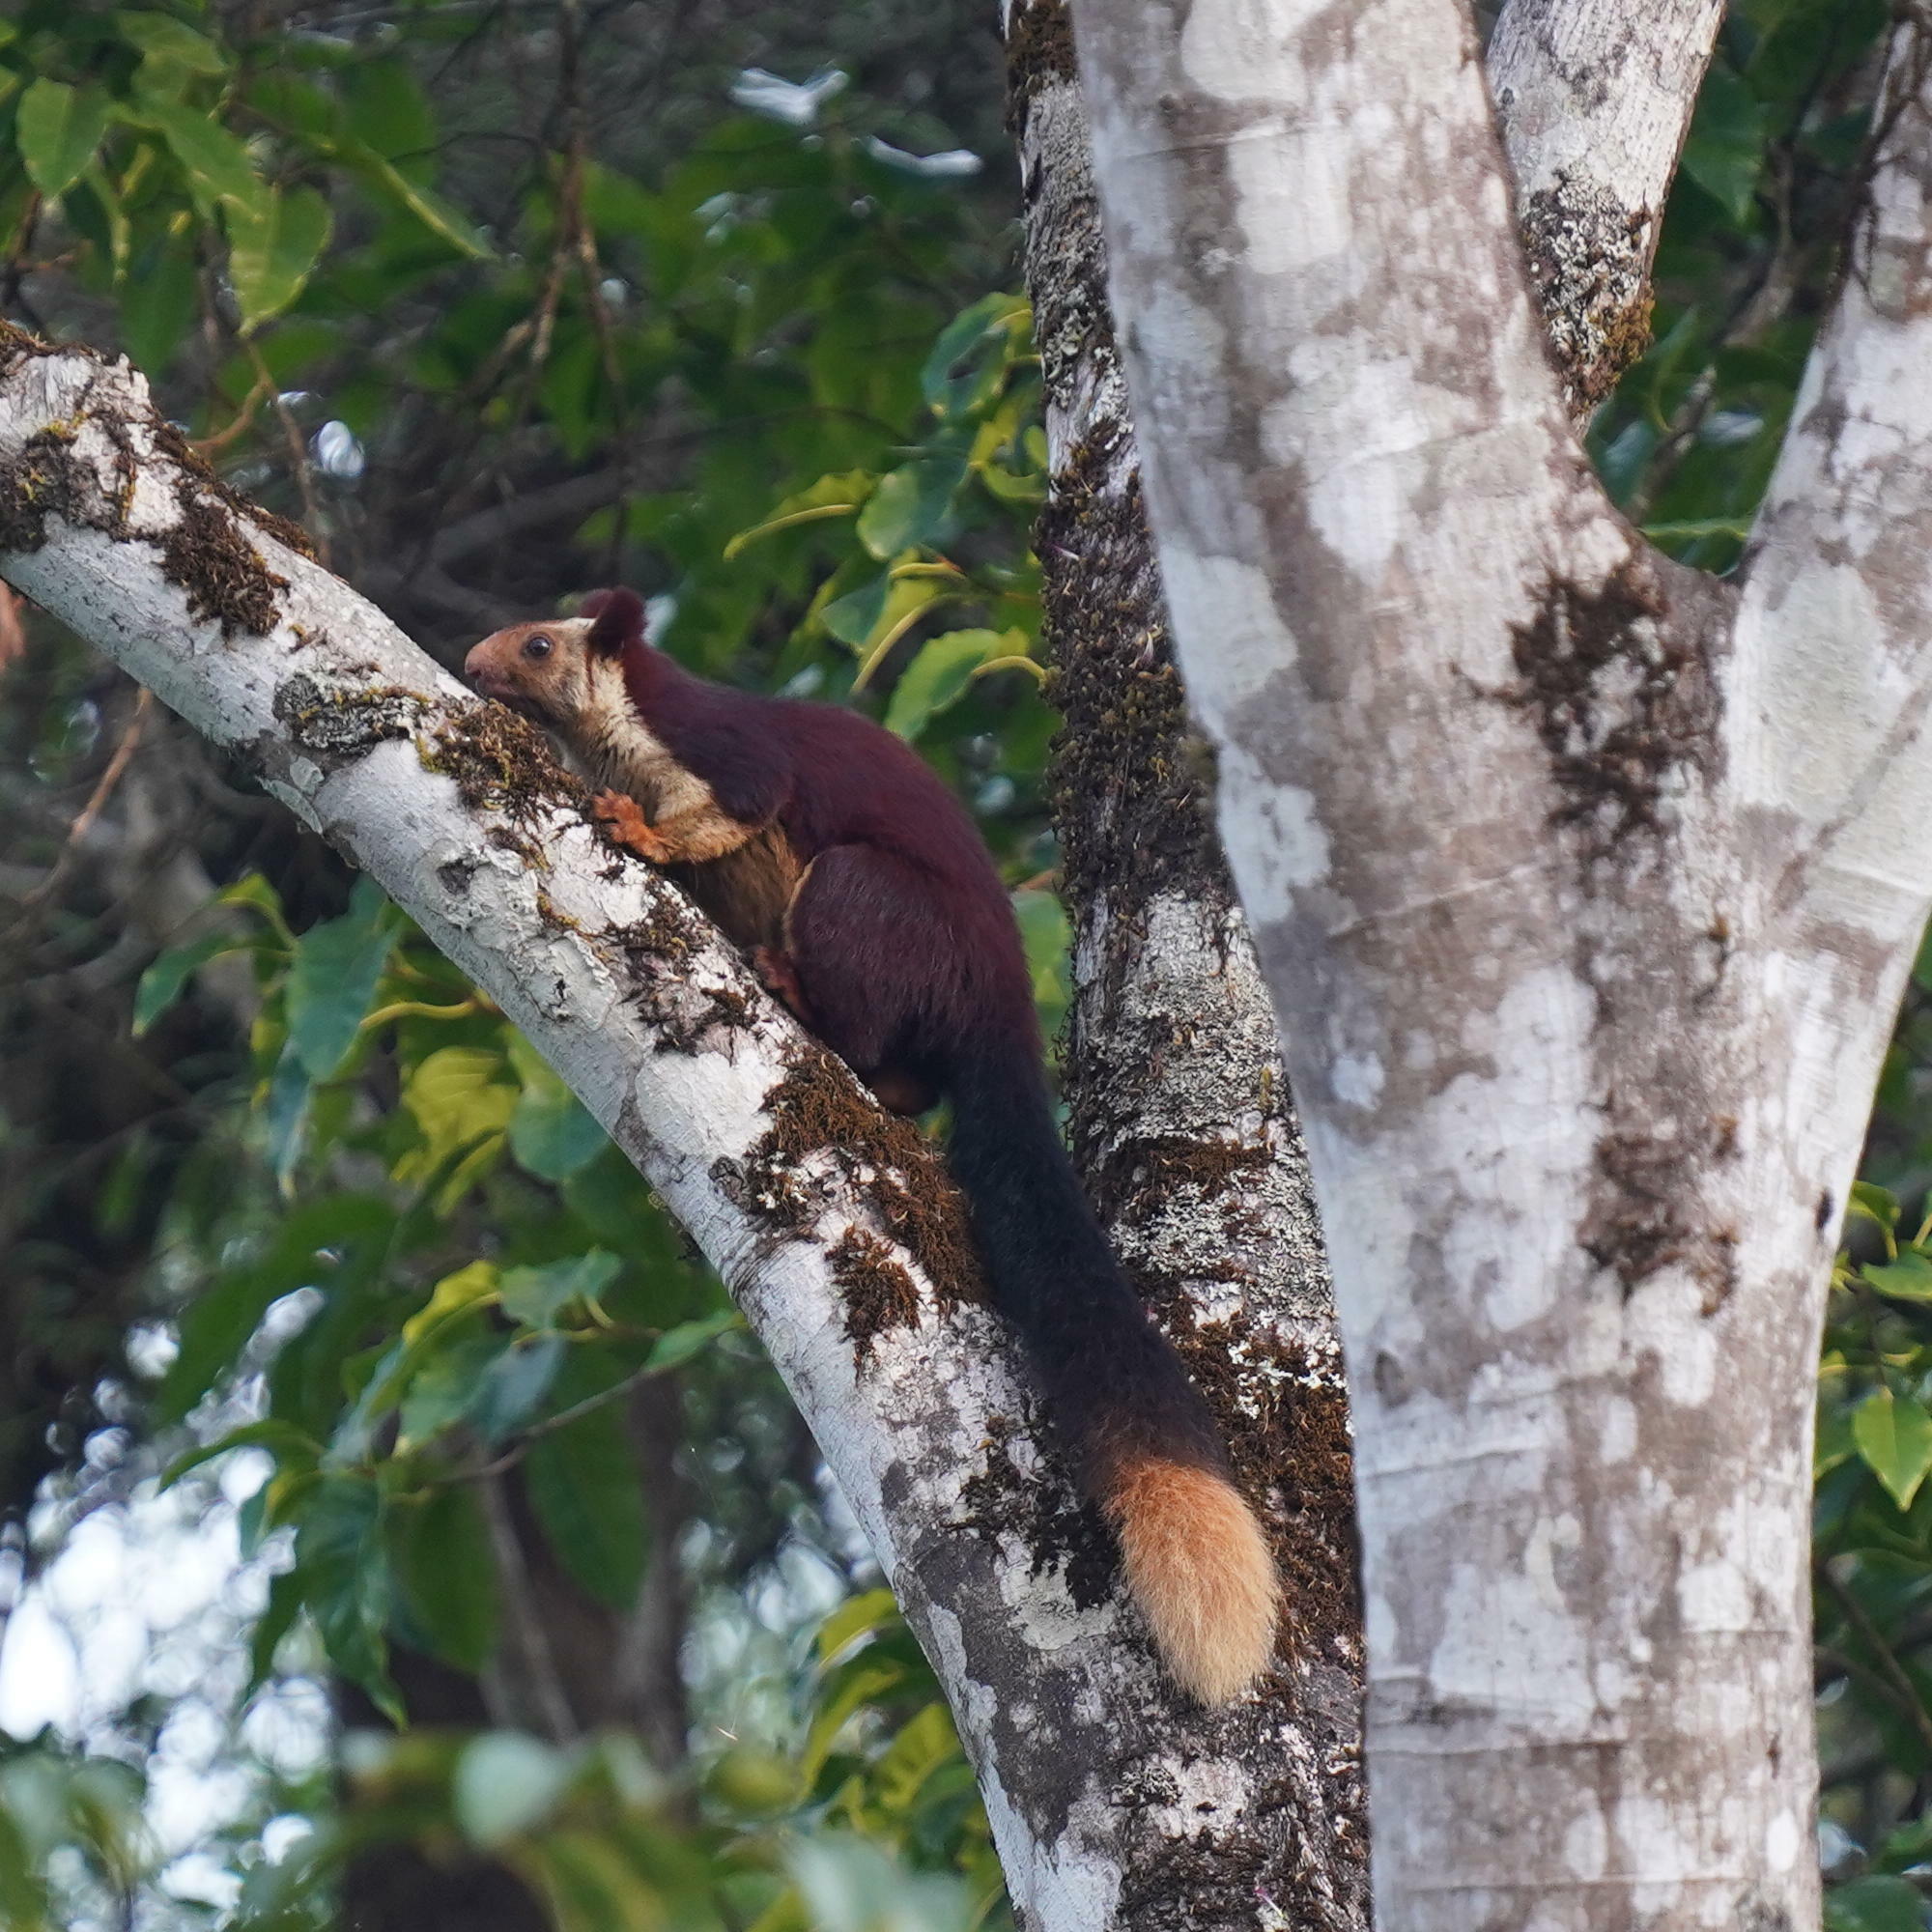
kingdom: Animalia
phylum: Chordata
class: Mammalia
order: Rodentia
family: Sciuridae
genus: Ratufa
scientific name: Ratufa indica
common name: Indian giant squirrel
